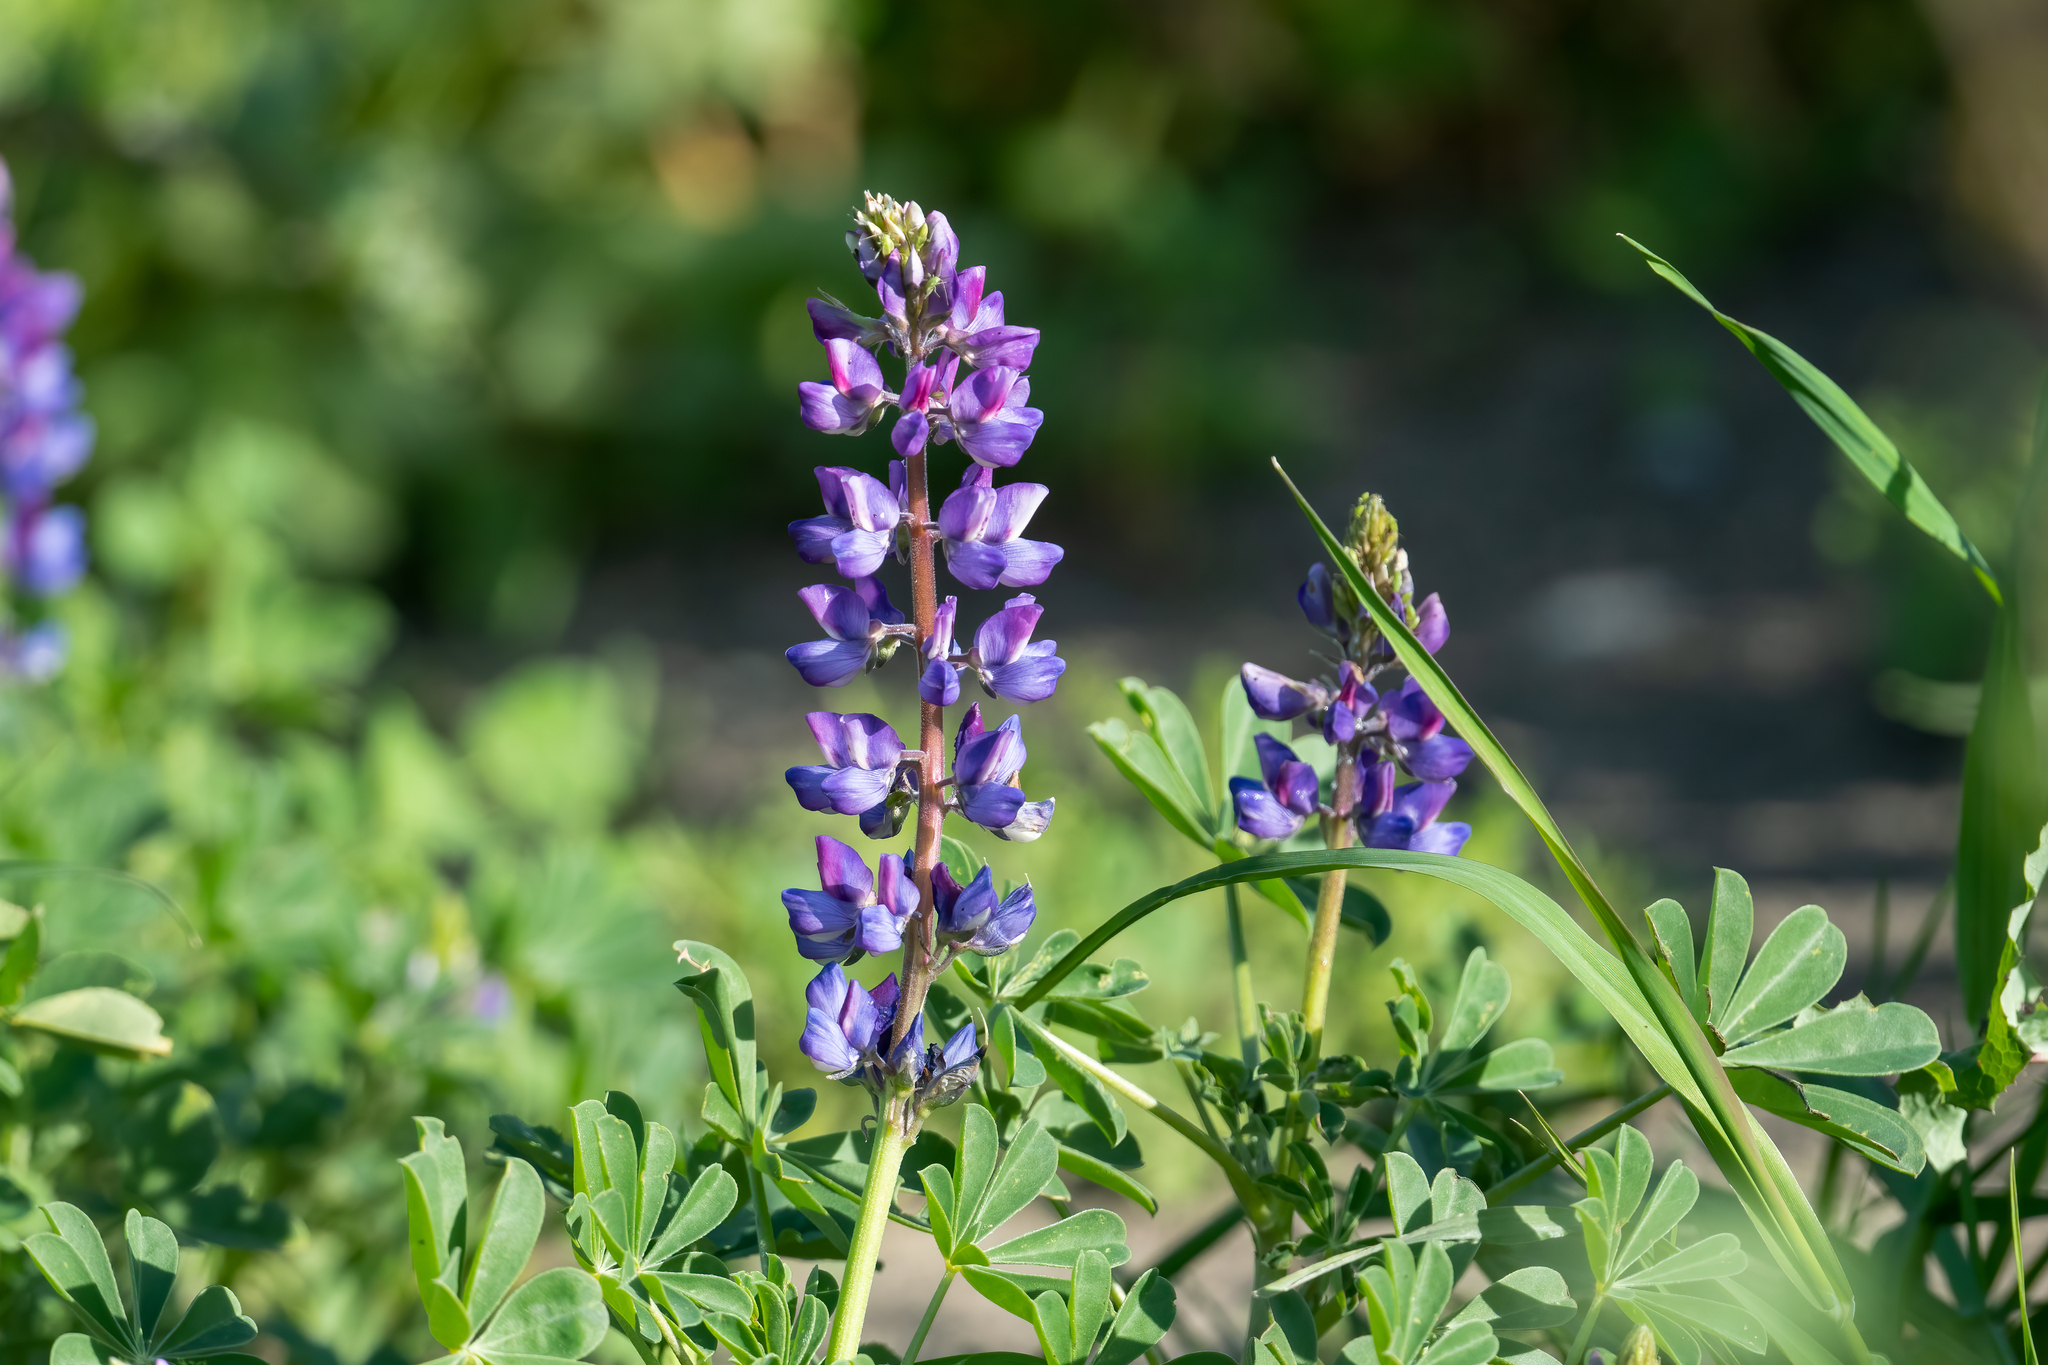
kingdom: Plantae
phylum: Tracheophyta
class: Magnoliopsida
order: Fabales
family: Fabaceae
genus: Lupinus
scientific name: Lupinus succulentus
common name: Arroyo lupine
